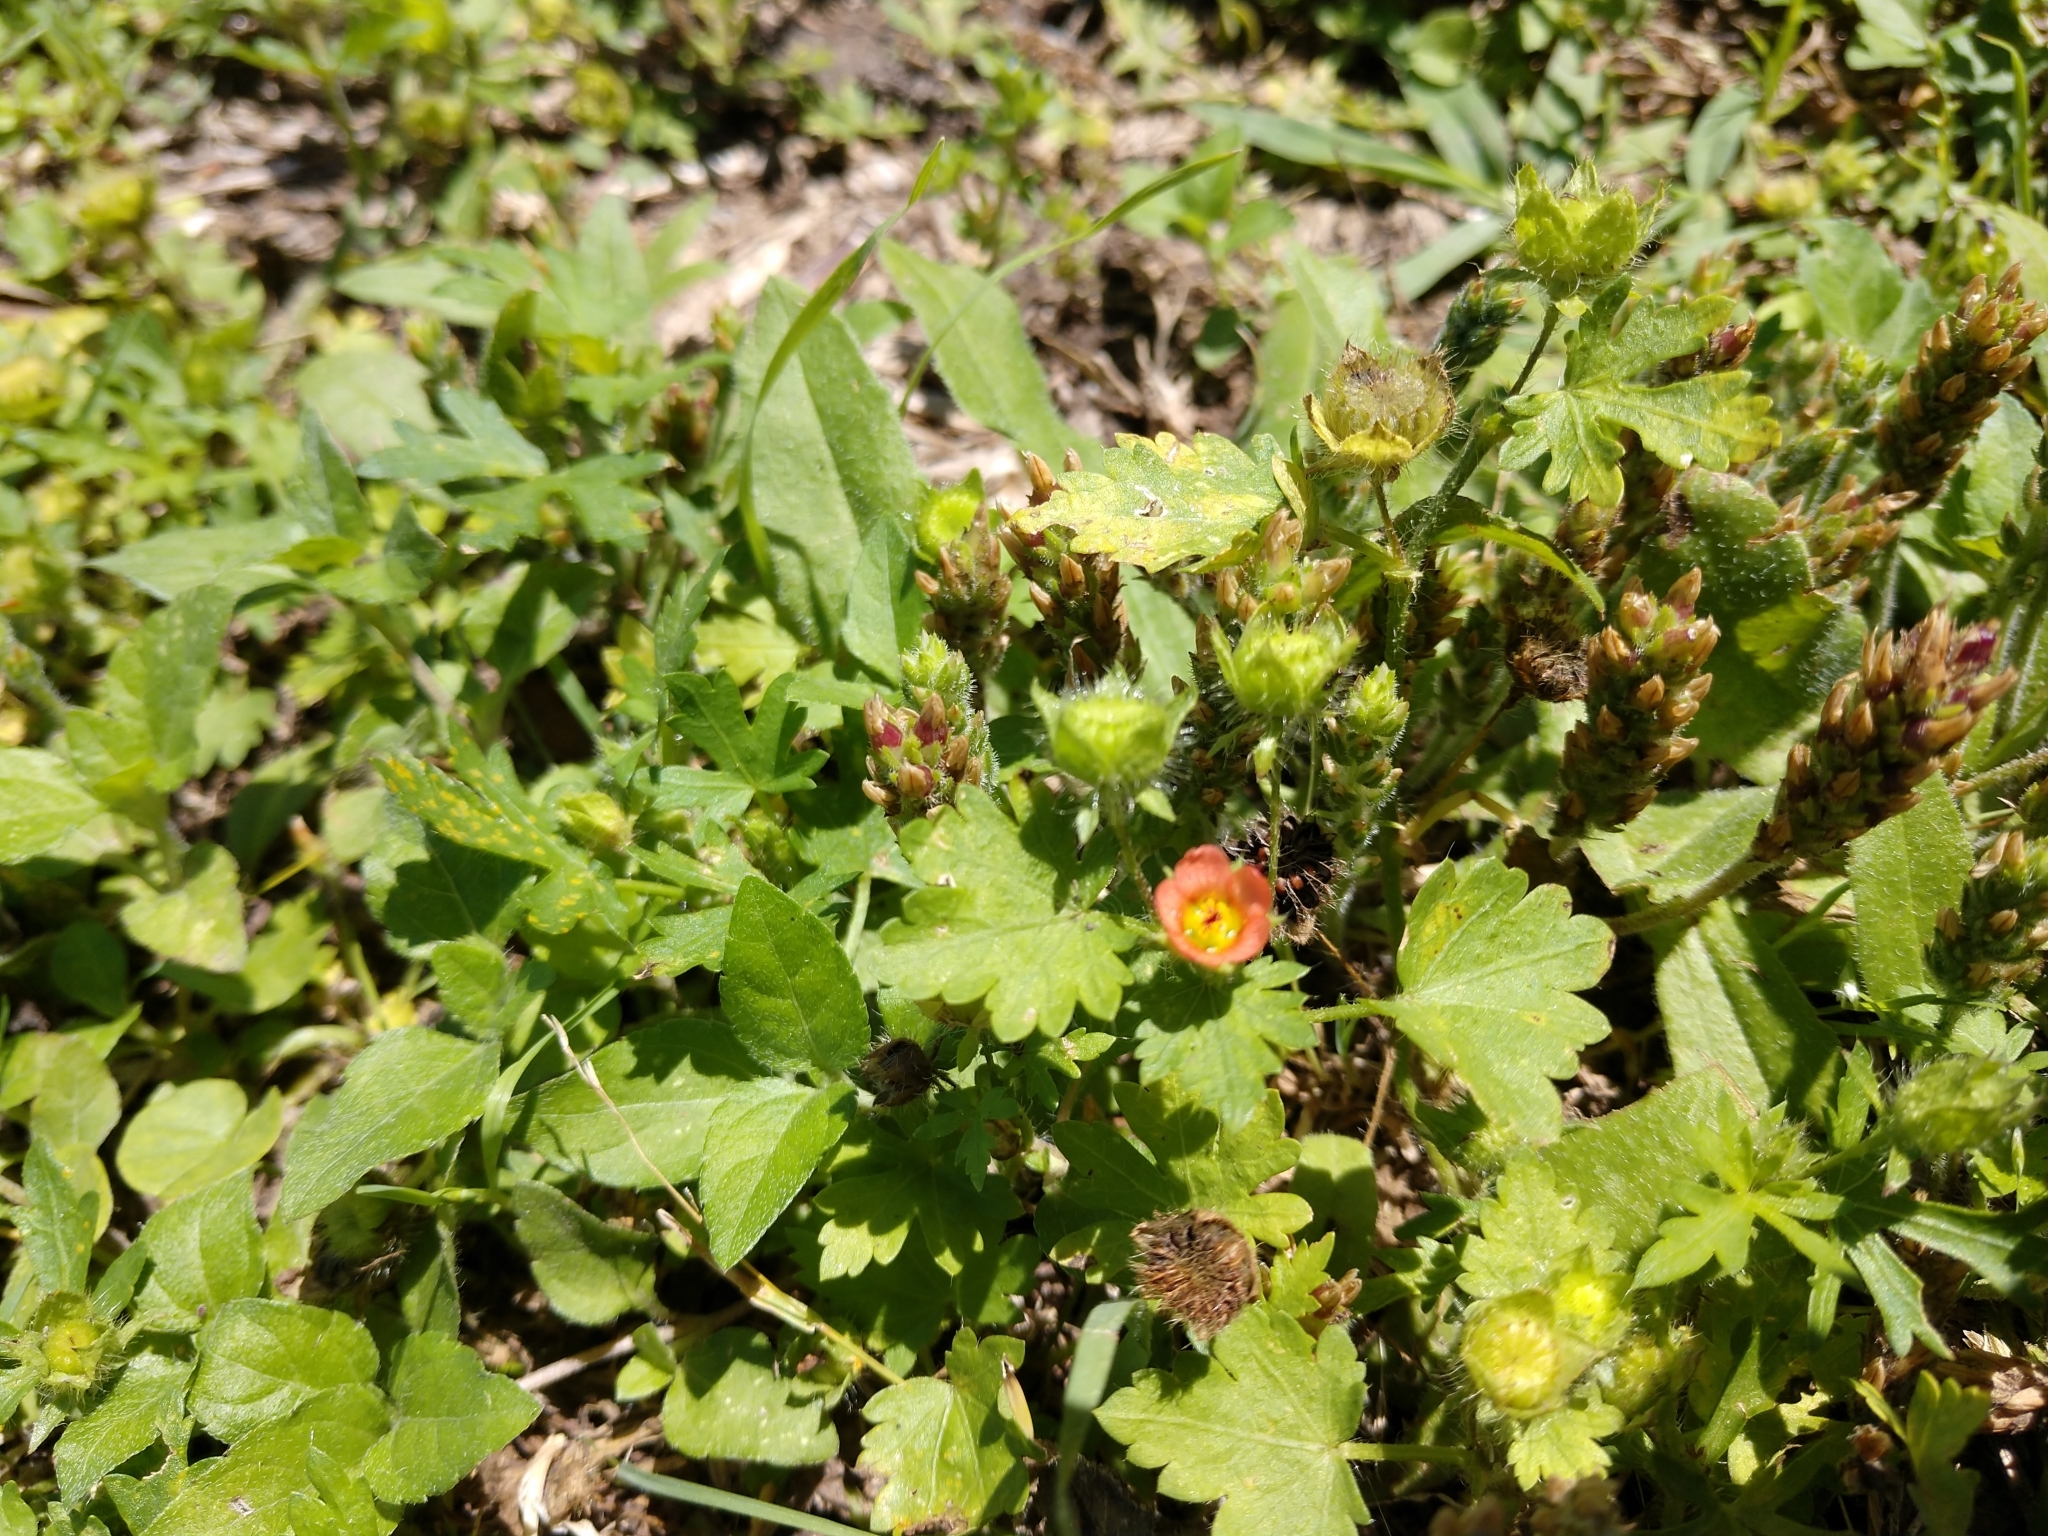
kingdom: Plantae
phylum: Tracheophyta
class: Magnoliopsida
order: Malvales
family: Malvaceae
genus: Modiola
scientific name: Modiola caroliniana
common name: Carolina bristlemallow
